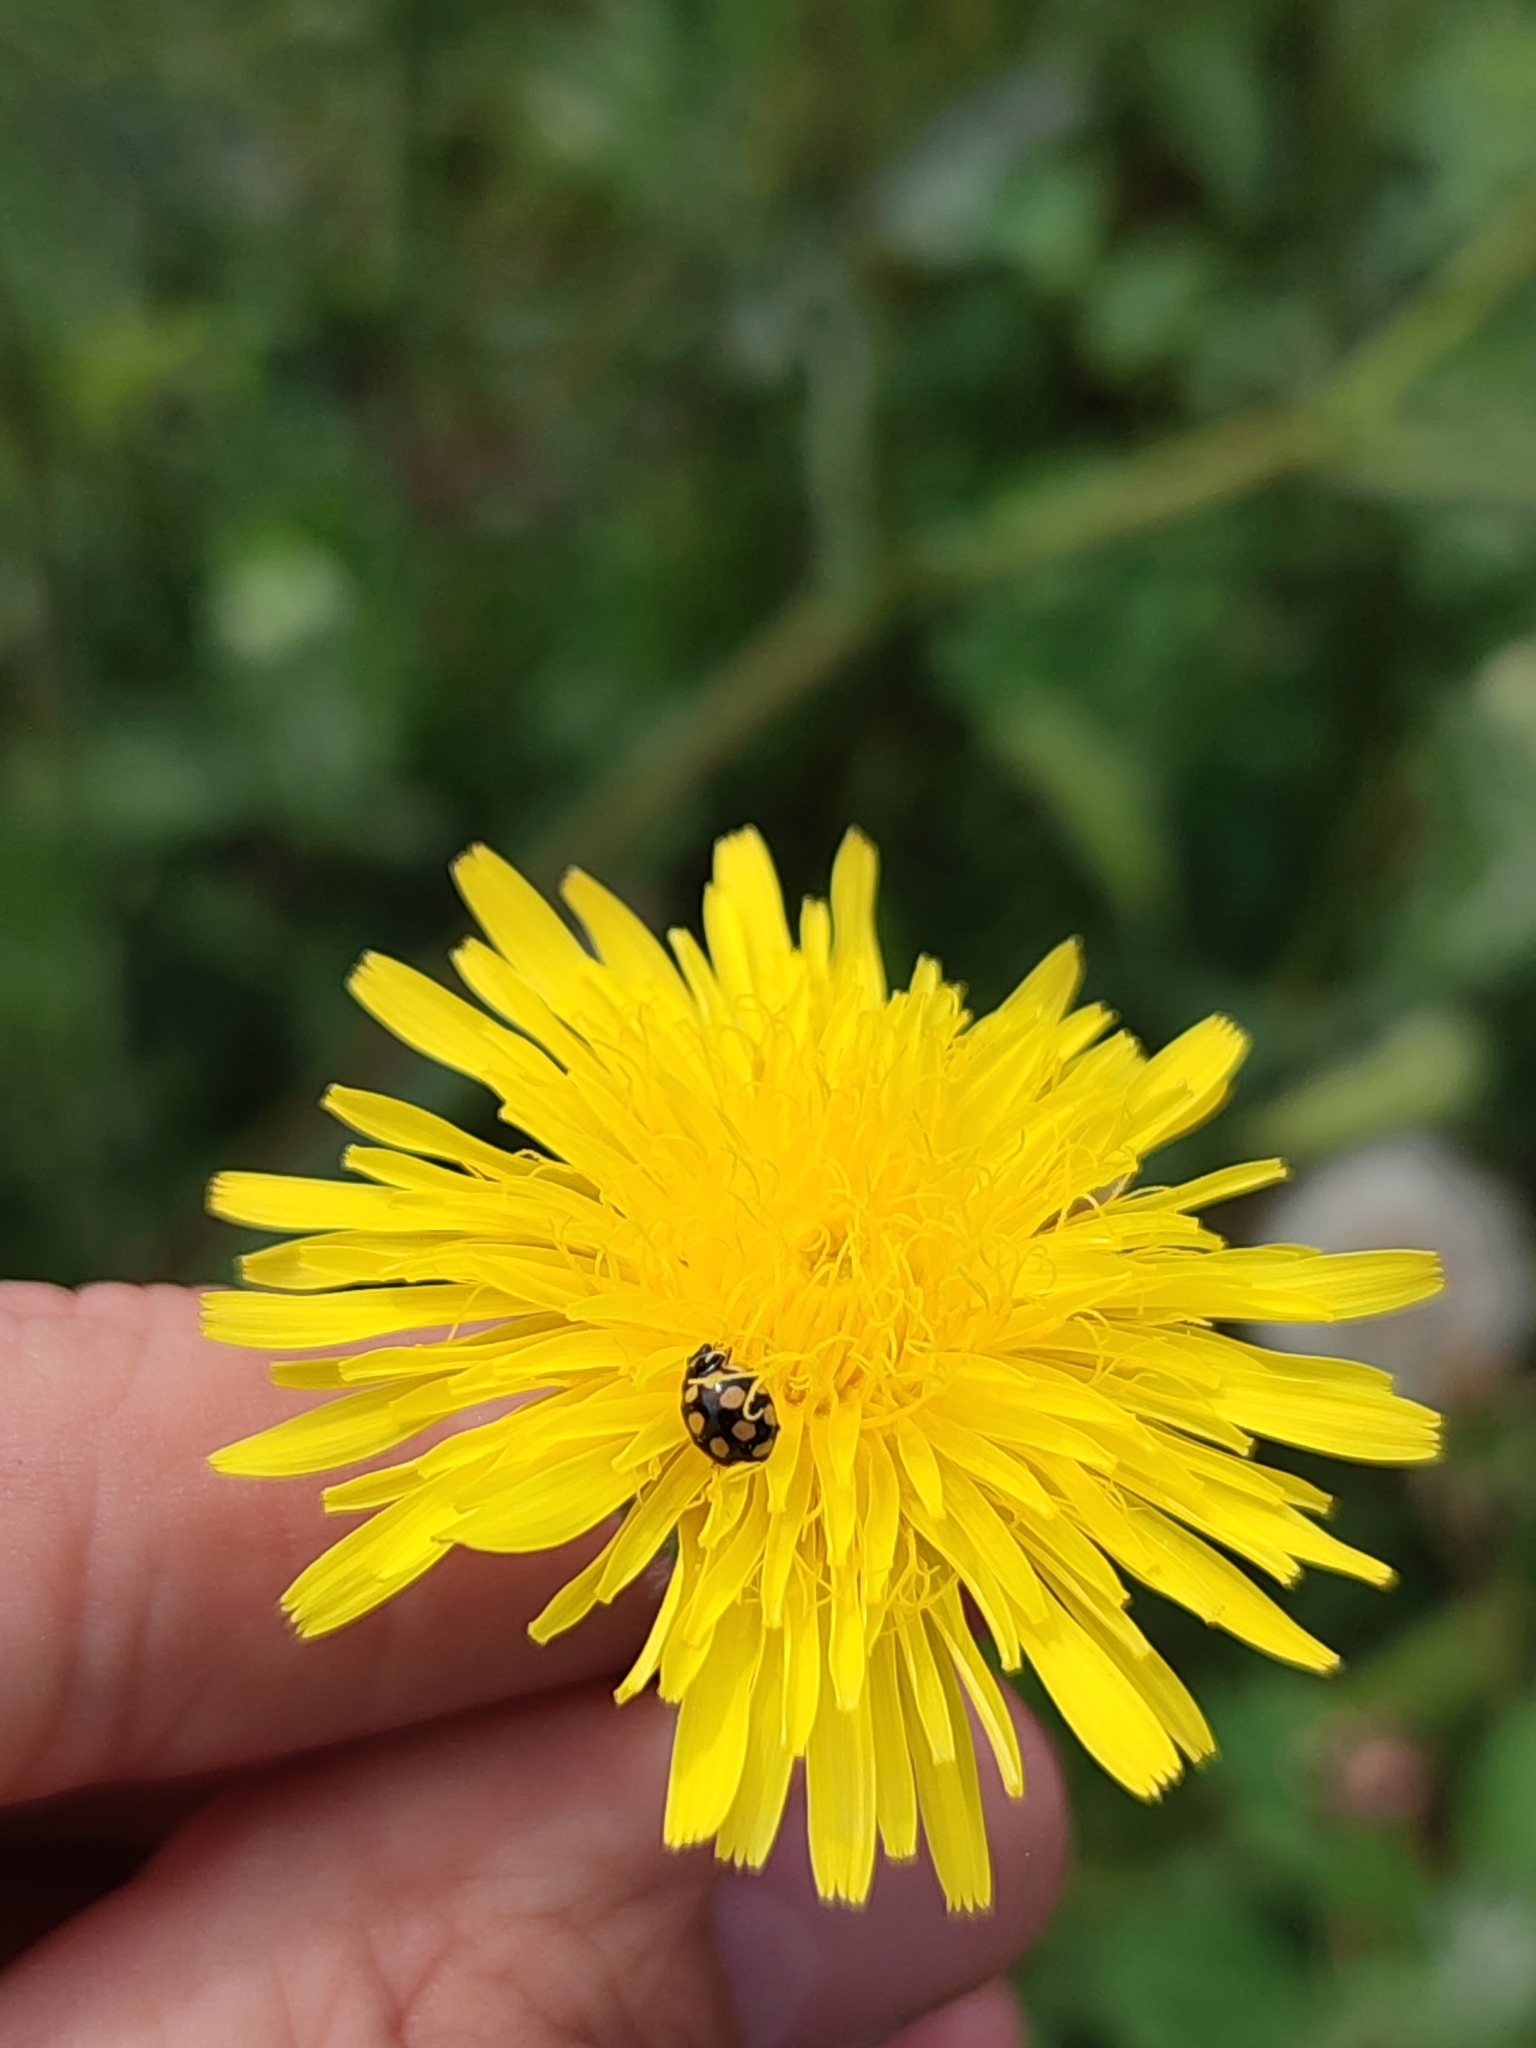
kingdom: Animalia
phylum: Arthropoda
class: Insecta
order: Coleoptera
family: Coccinellidae
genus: Coccinula
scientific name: Coccinula quatuordecimpustulata
